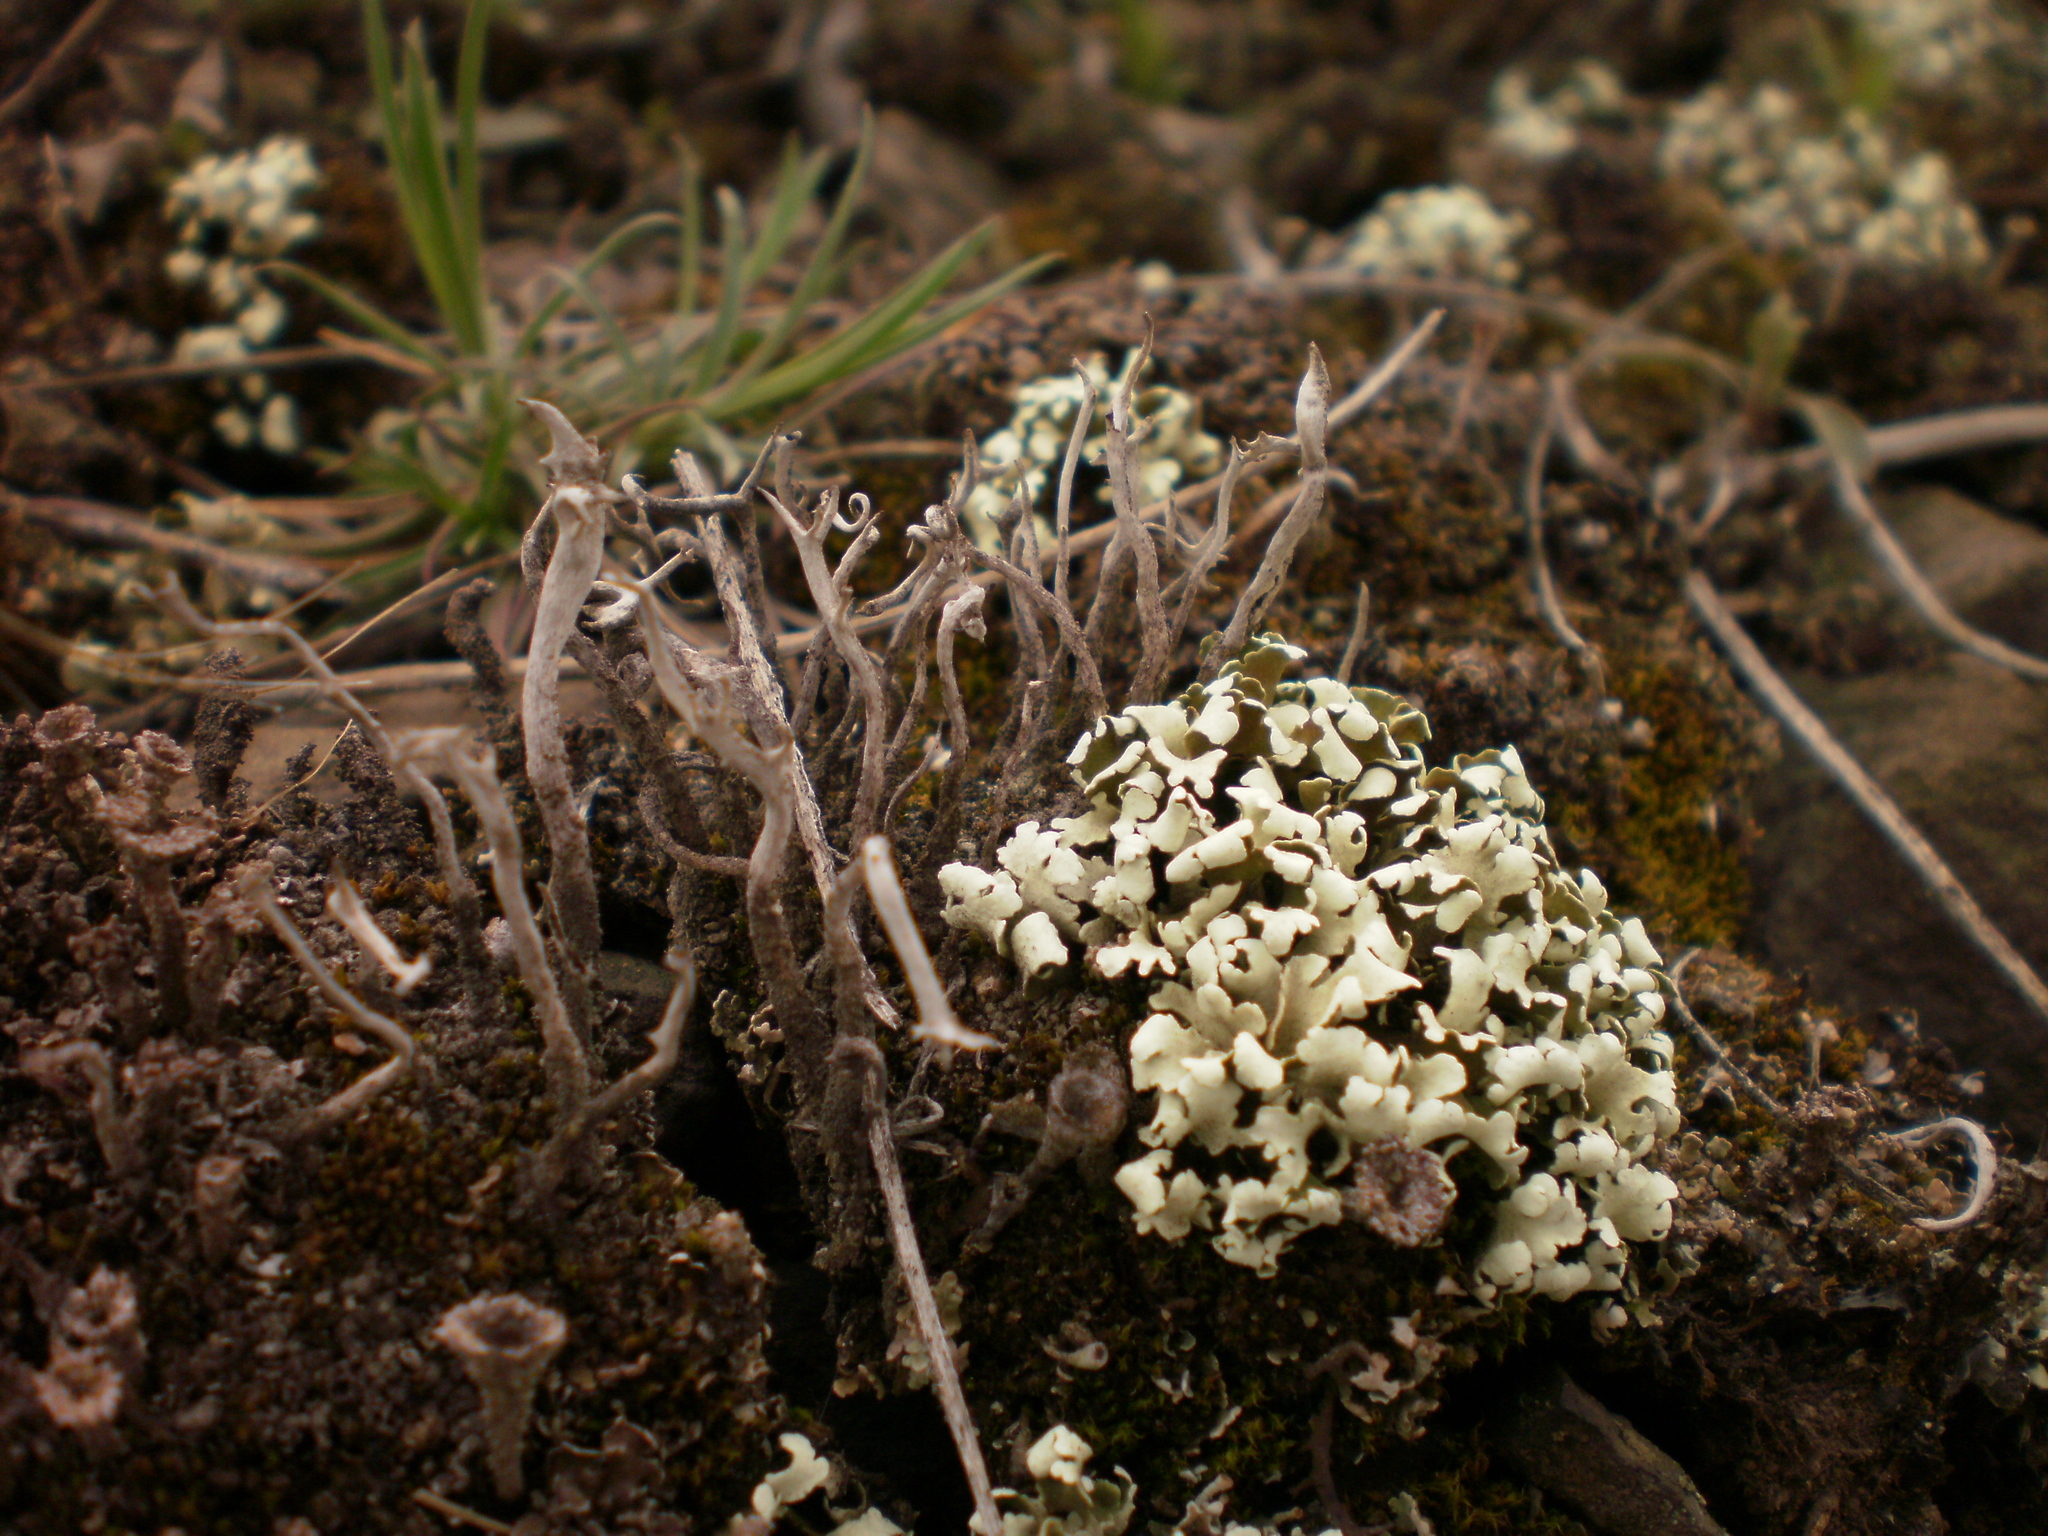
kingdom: Fungi
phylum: Ascomycota
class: Lecanoromycetes
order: Lecanorales
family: Cladoniaceae
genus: Cladonia
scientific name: Cladonia foliacea
